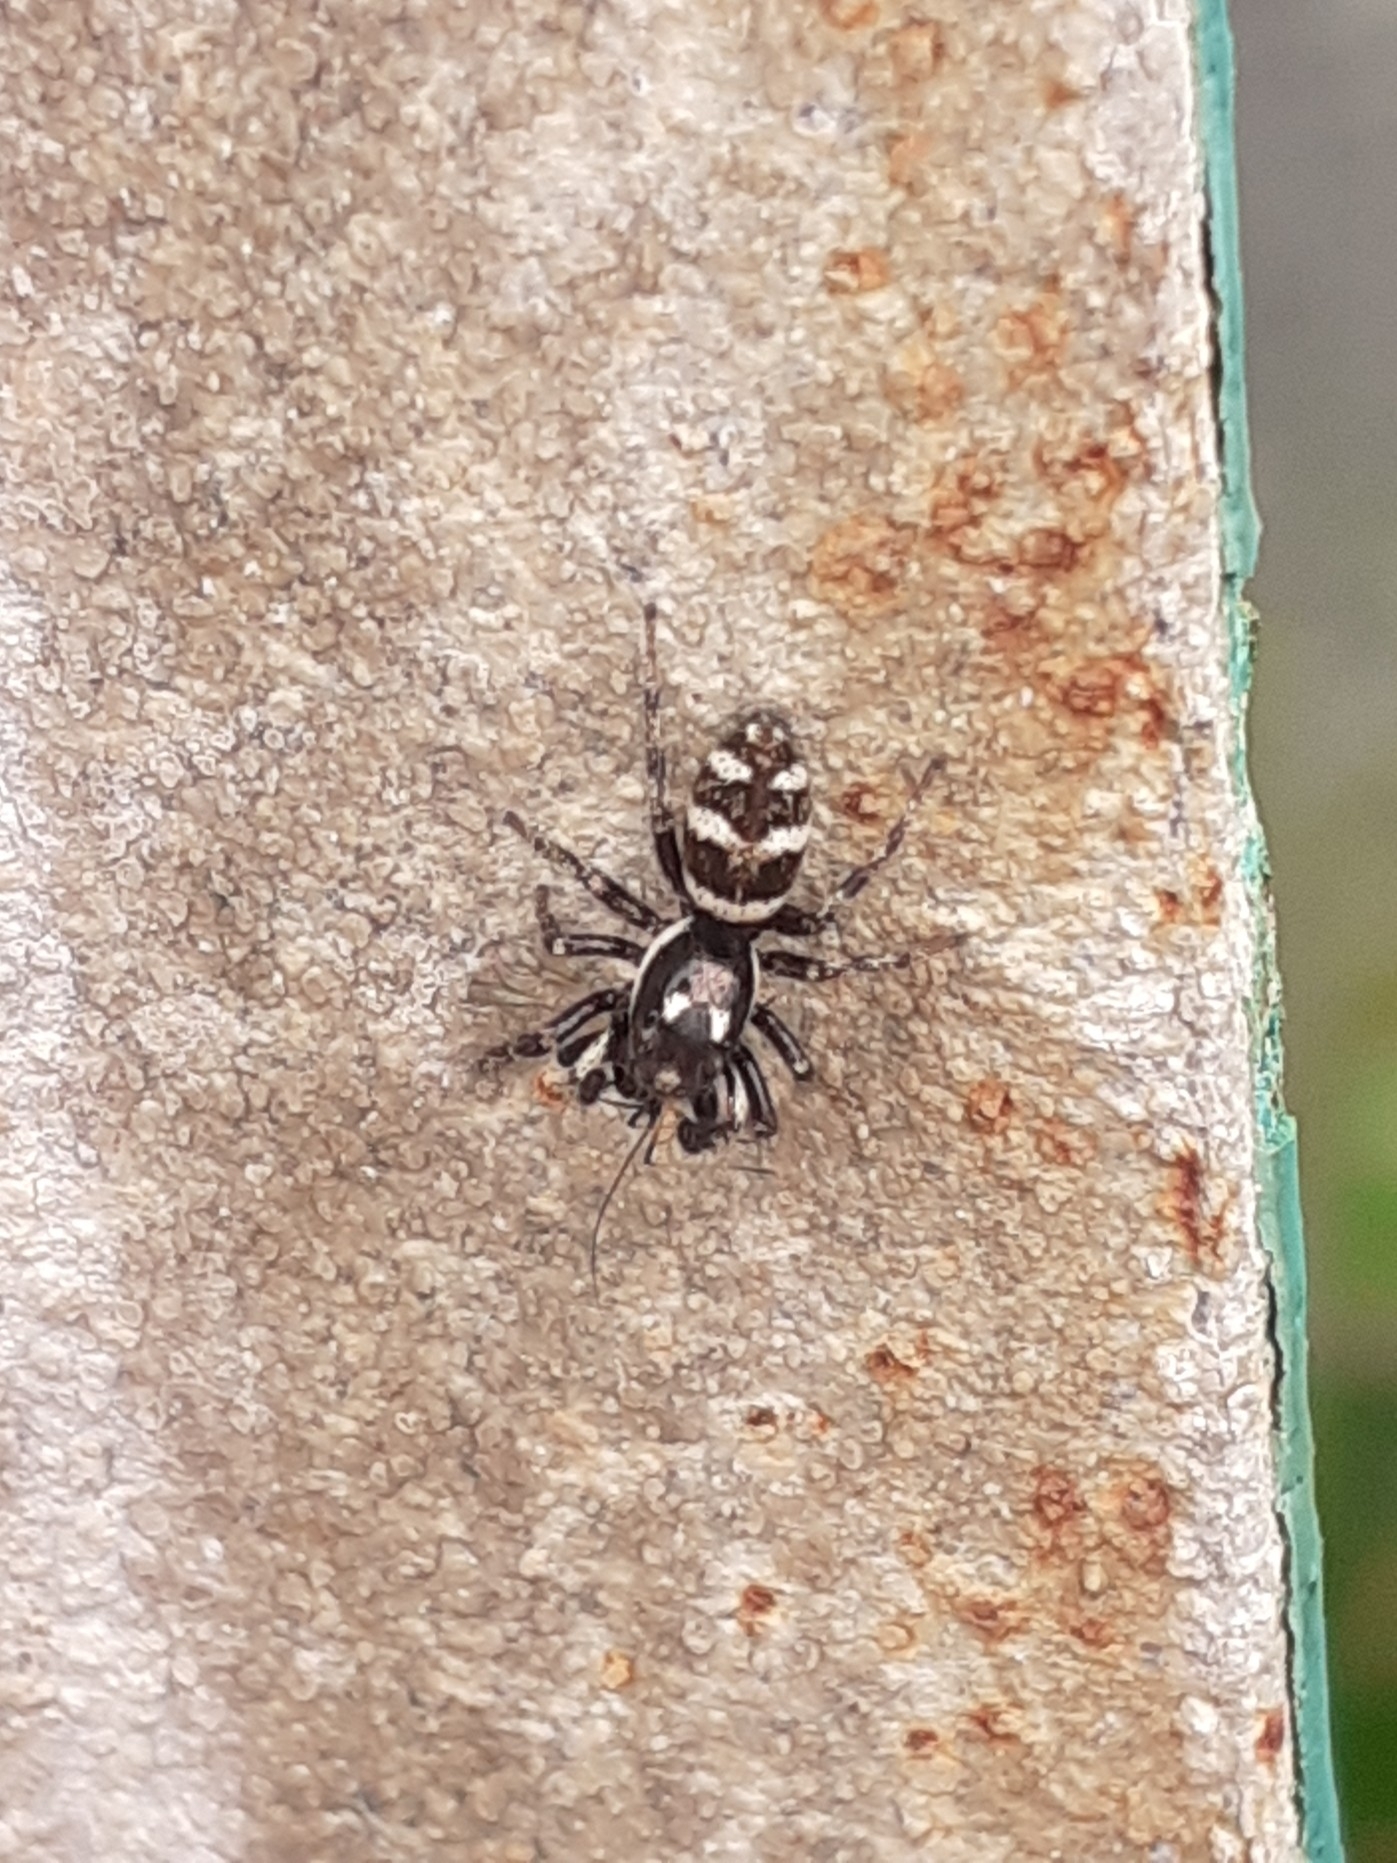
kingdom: Animalia
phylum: Arthropoda
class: Arachnida
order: Araneae
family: Salticidae
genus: Salticus
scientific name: Salticus scenicus
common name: Zebra jumper
